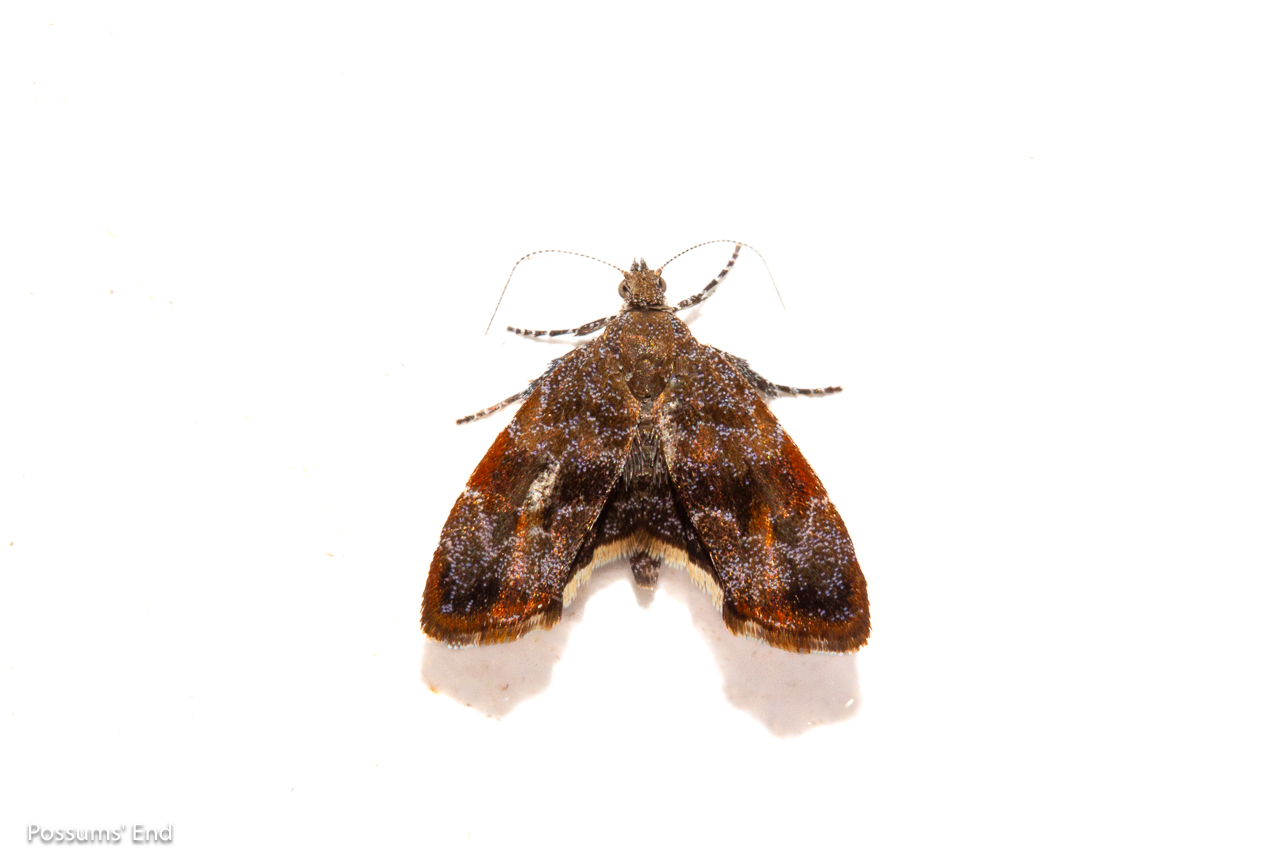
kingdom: Animalia
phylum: Arthropoda
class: Insecta
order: Lepidoptera
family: Choreutidae
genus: Asterivora
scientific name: Asterivora combinatana
